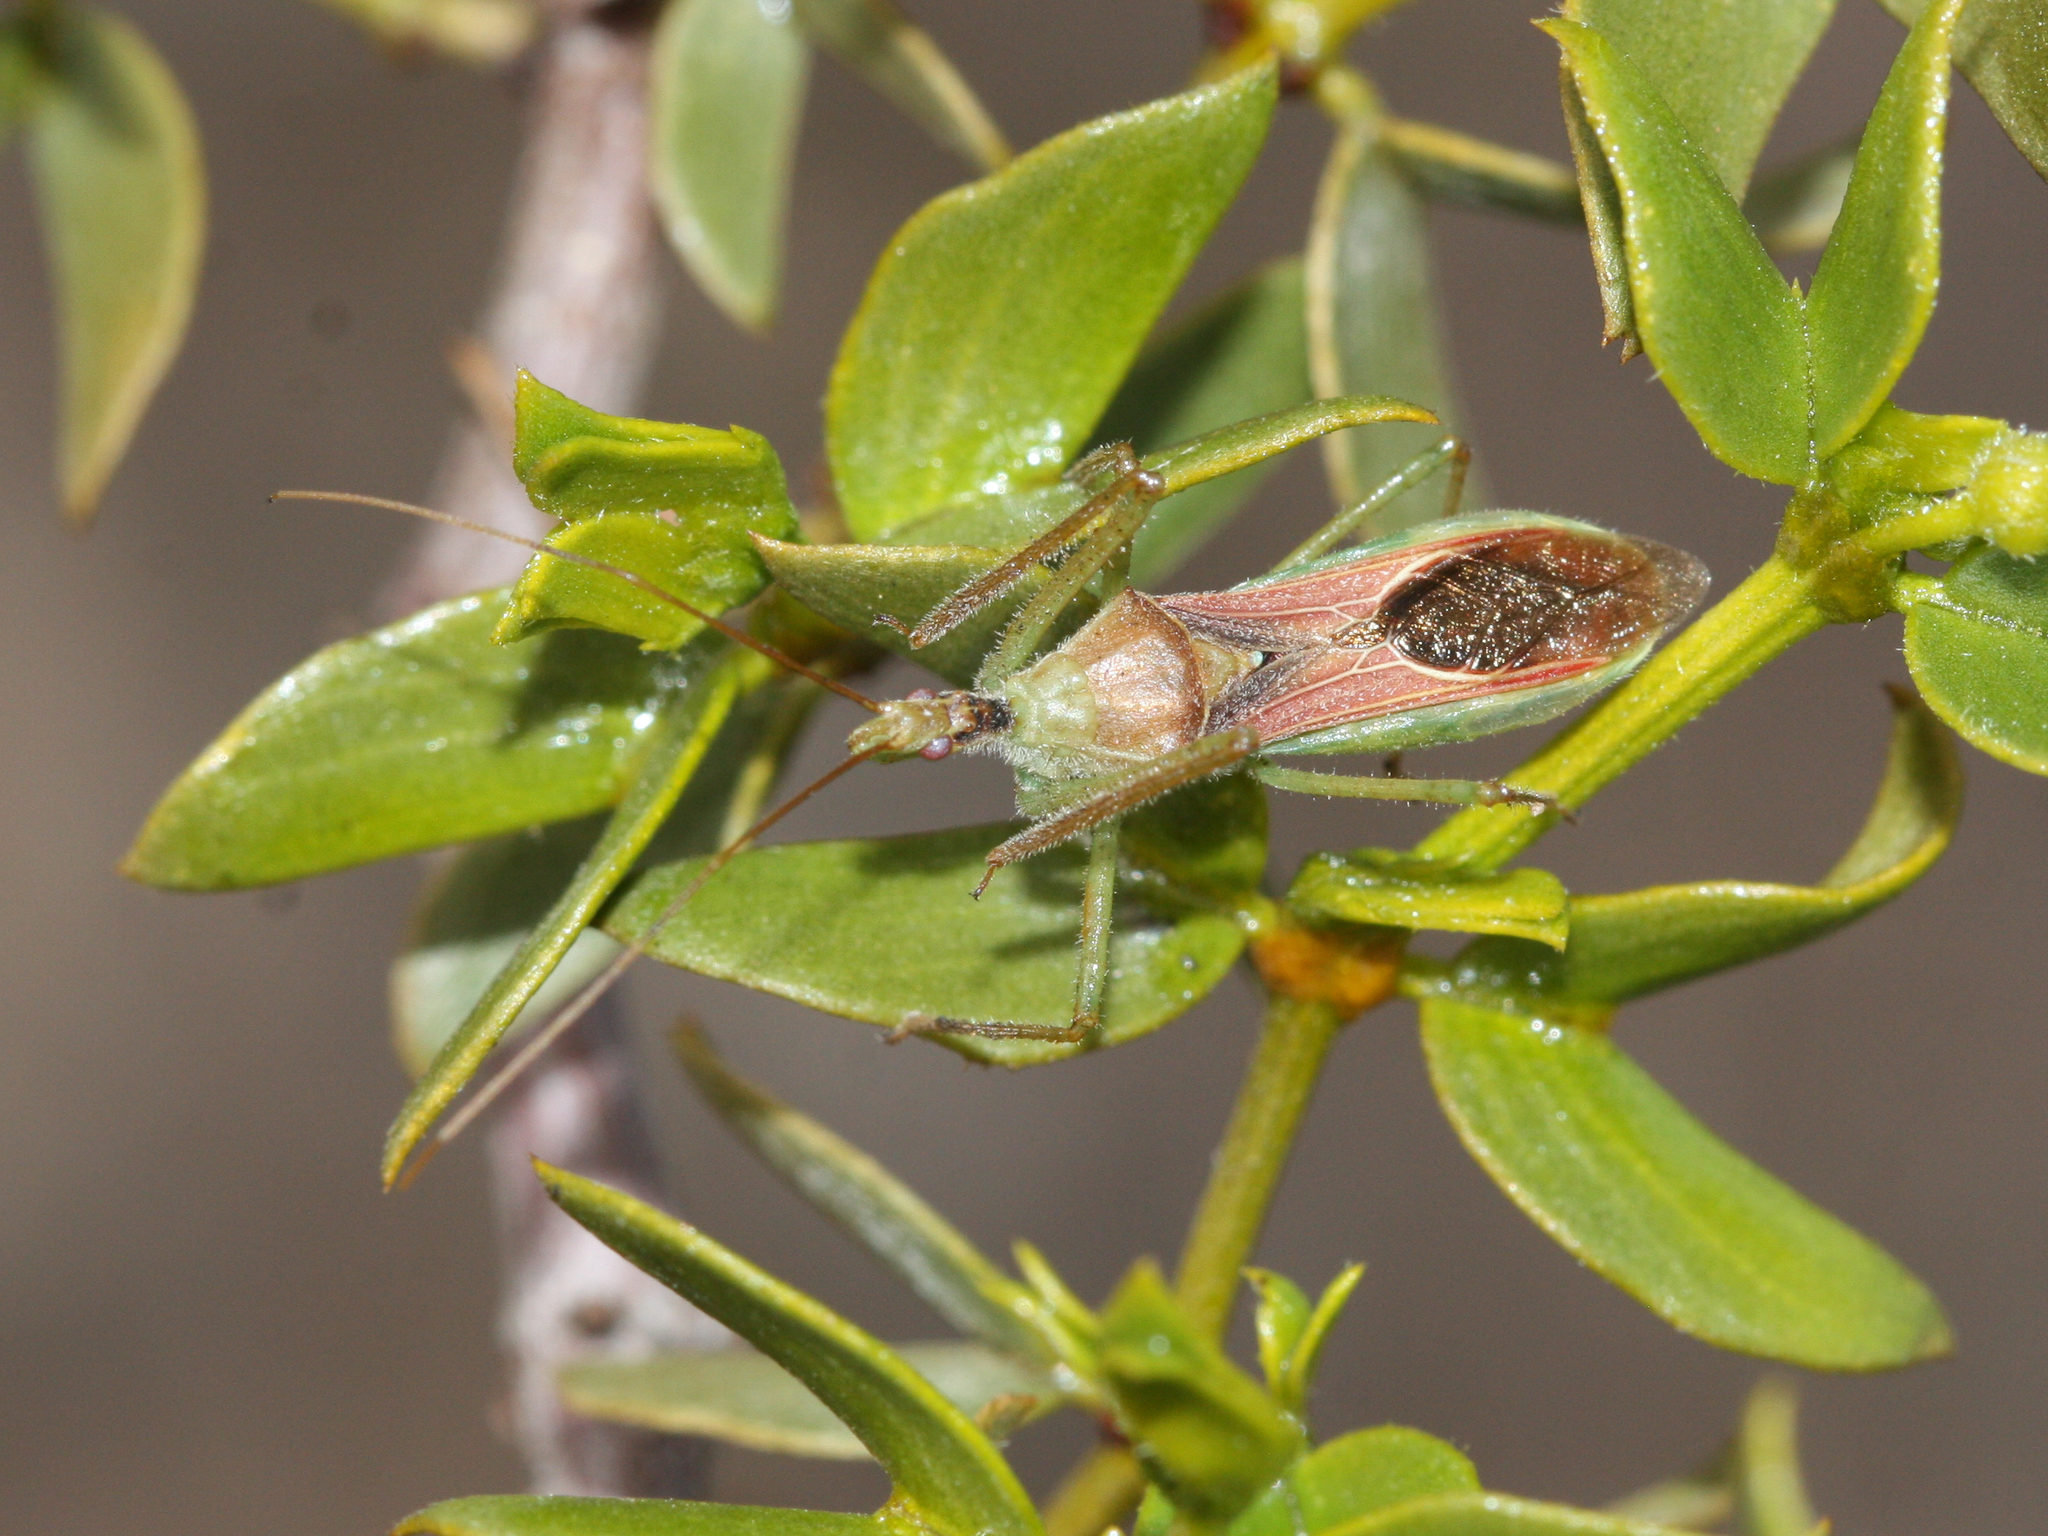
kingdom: Animalia
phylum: Arthropoda
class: Insecta
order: Hemiptera
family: Reduviidae
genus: Zelus
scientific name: Zelus renardii
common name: Assassin bug
